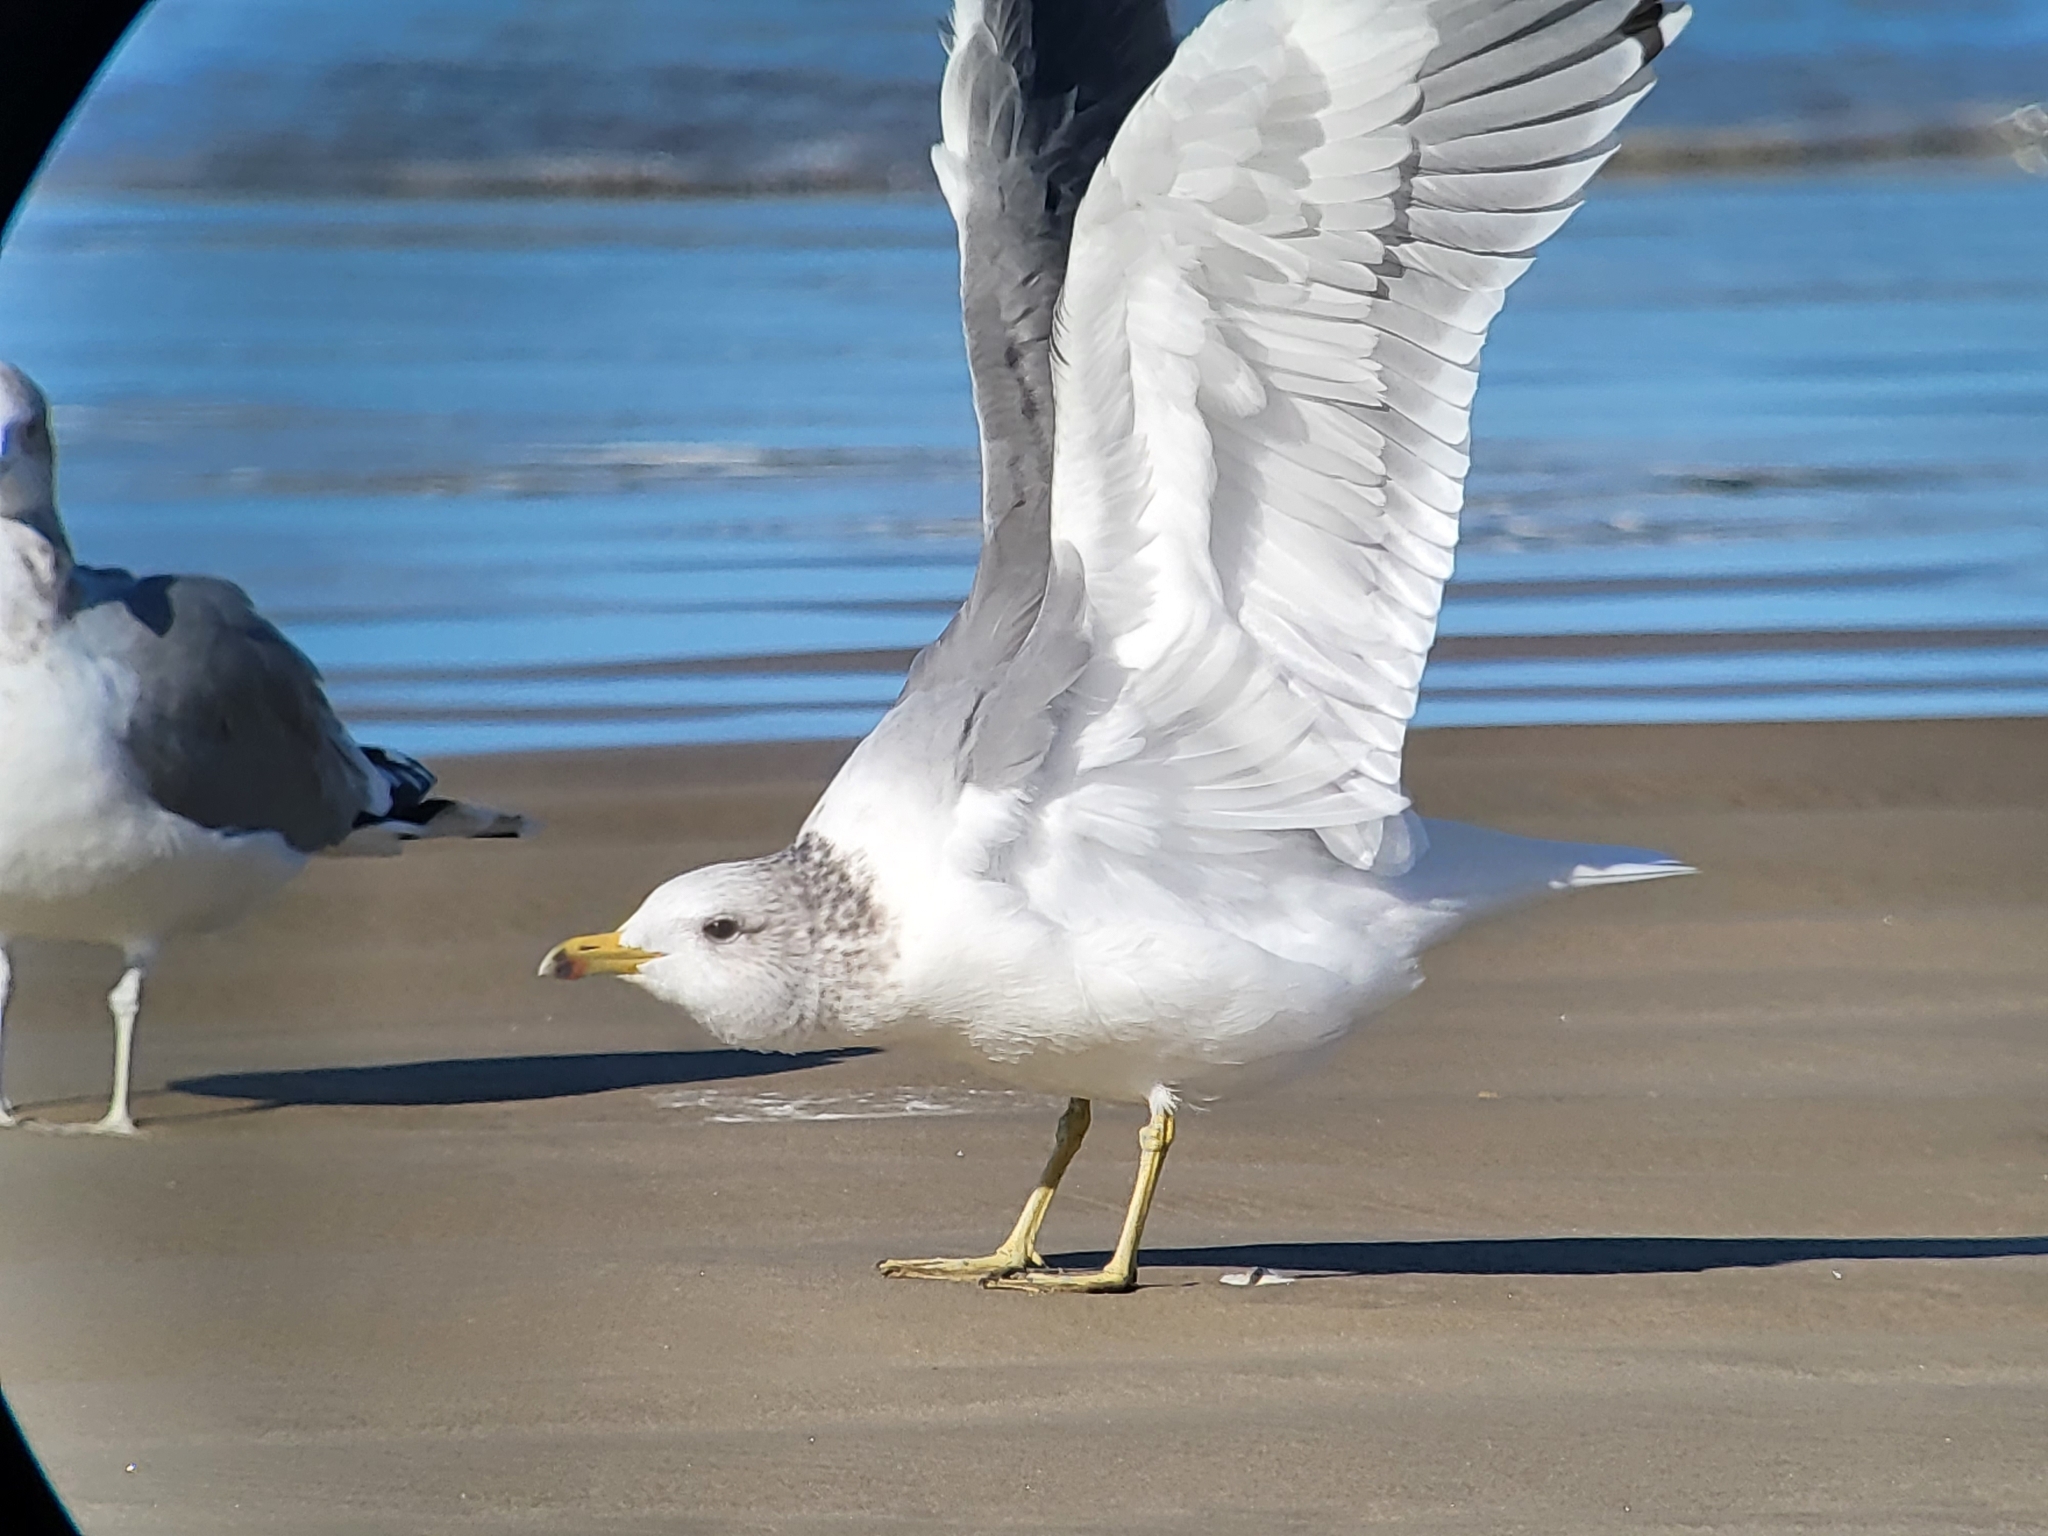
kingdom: Animalia
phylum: Chordata
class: Aves
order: Charadriiformes
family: Laridae
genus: Larus
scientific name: Larus californicus
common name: California gull
